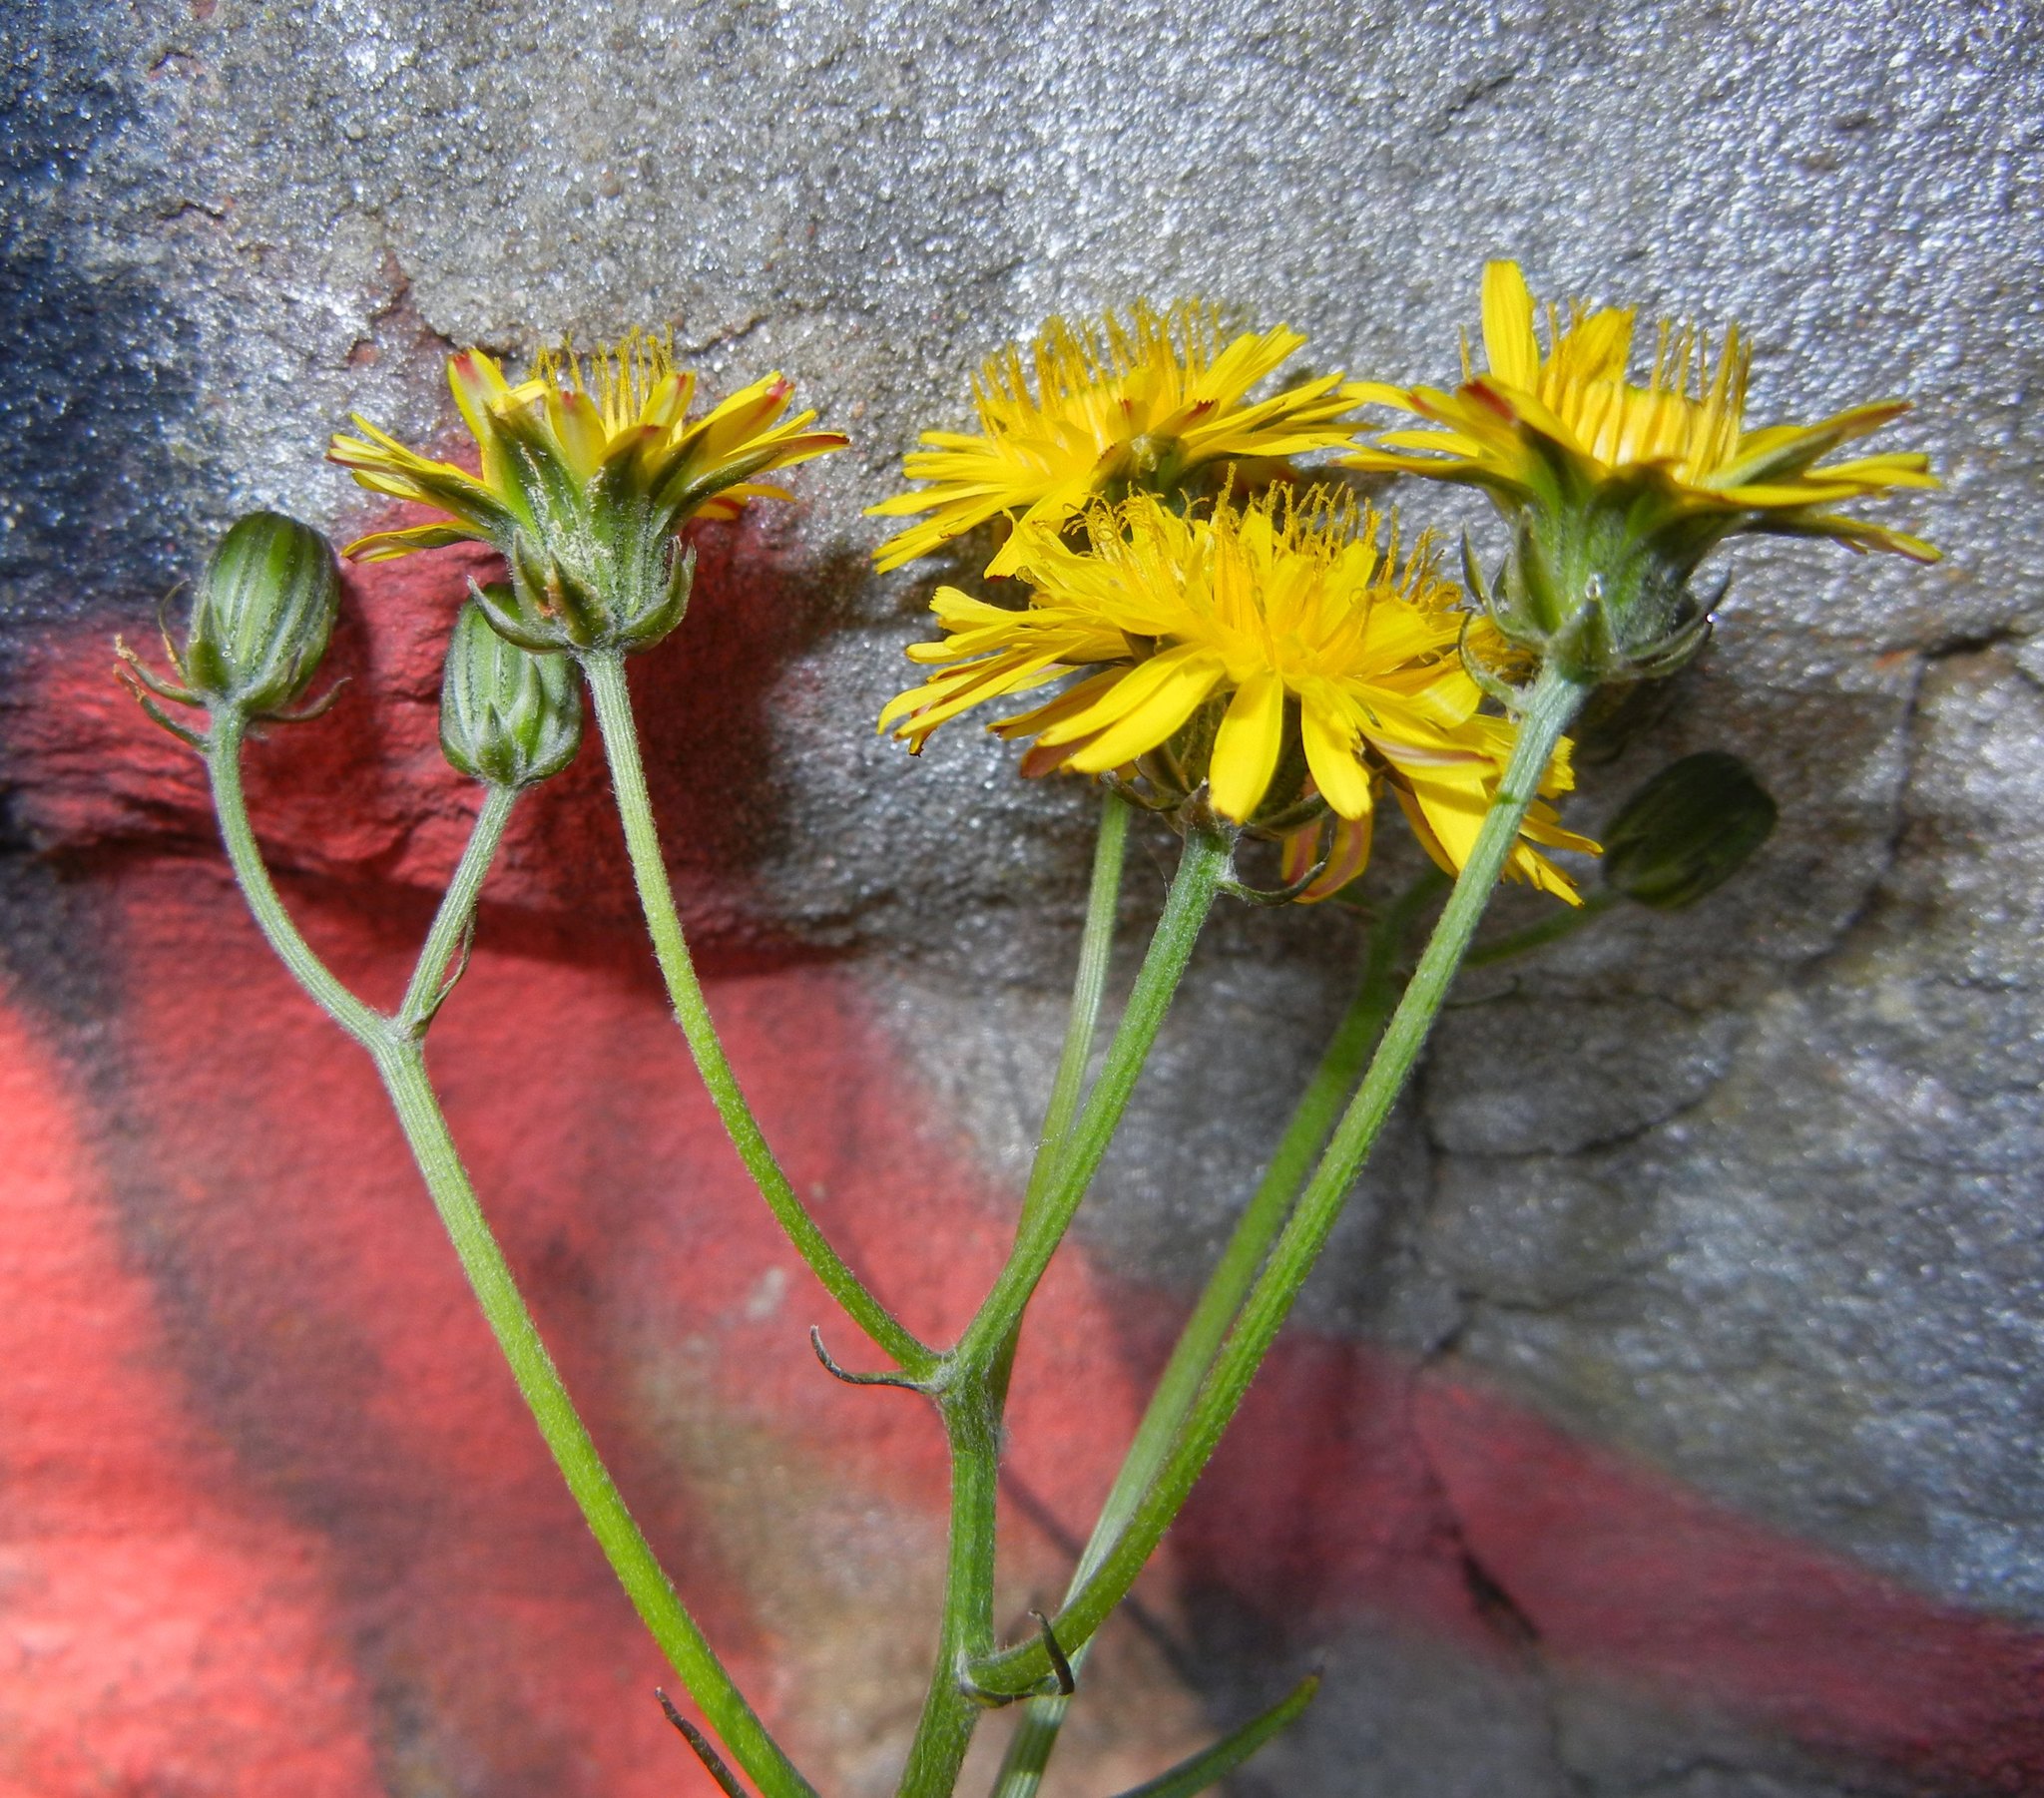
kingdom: Plantae
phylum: Tracheophyta
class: Magnoliopsida
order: Asterales
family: Asteraceae
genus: Crepis
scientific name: Crepis vesicaria
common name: Beaked hawksbeard
